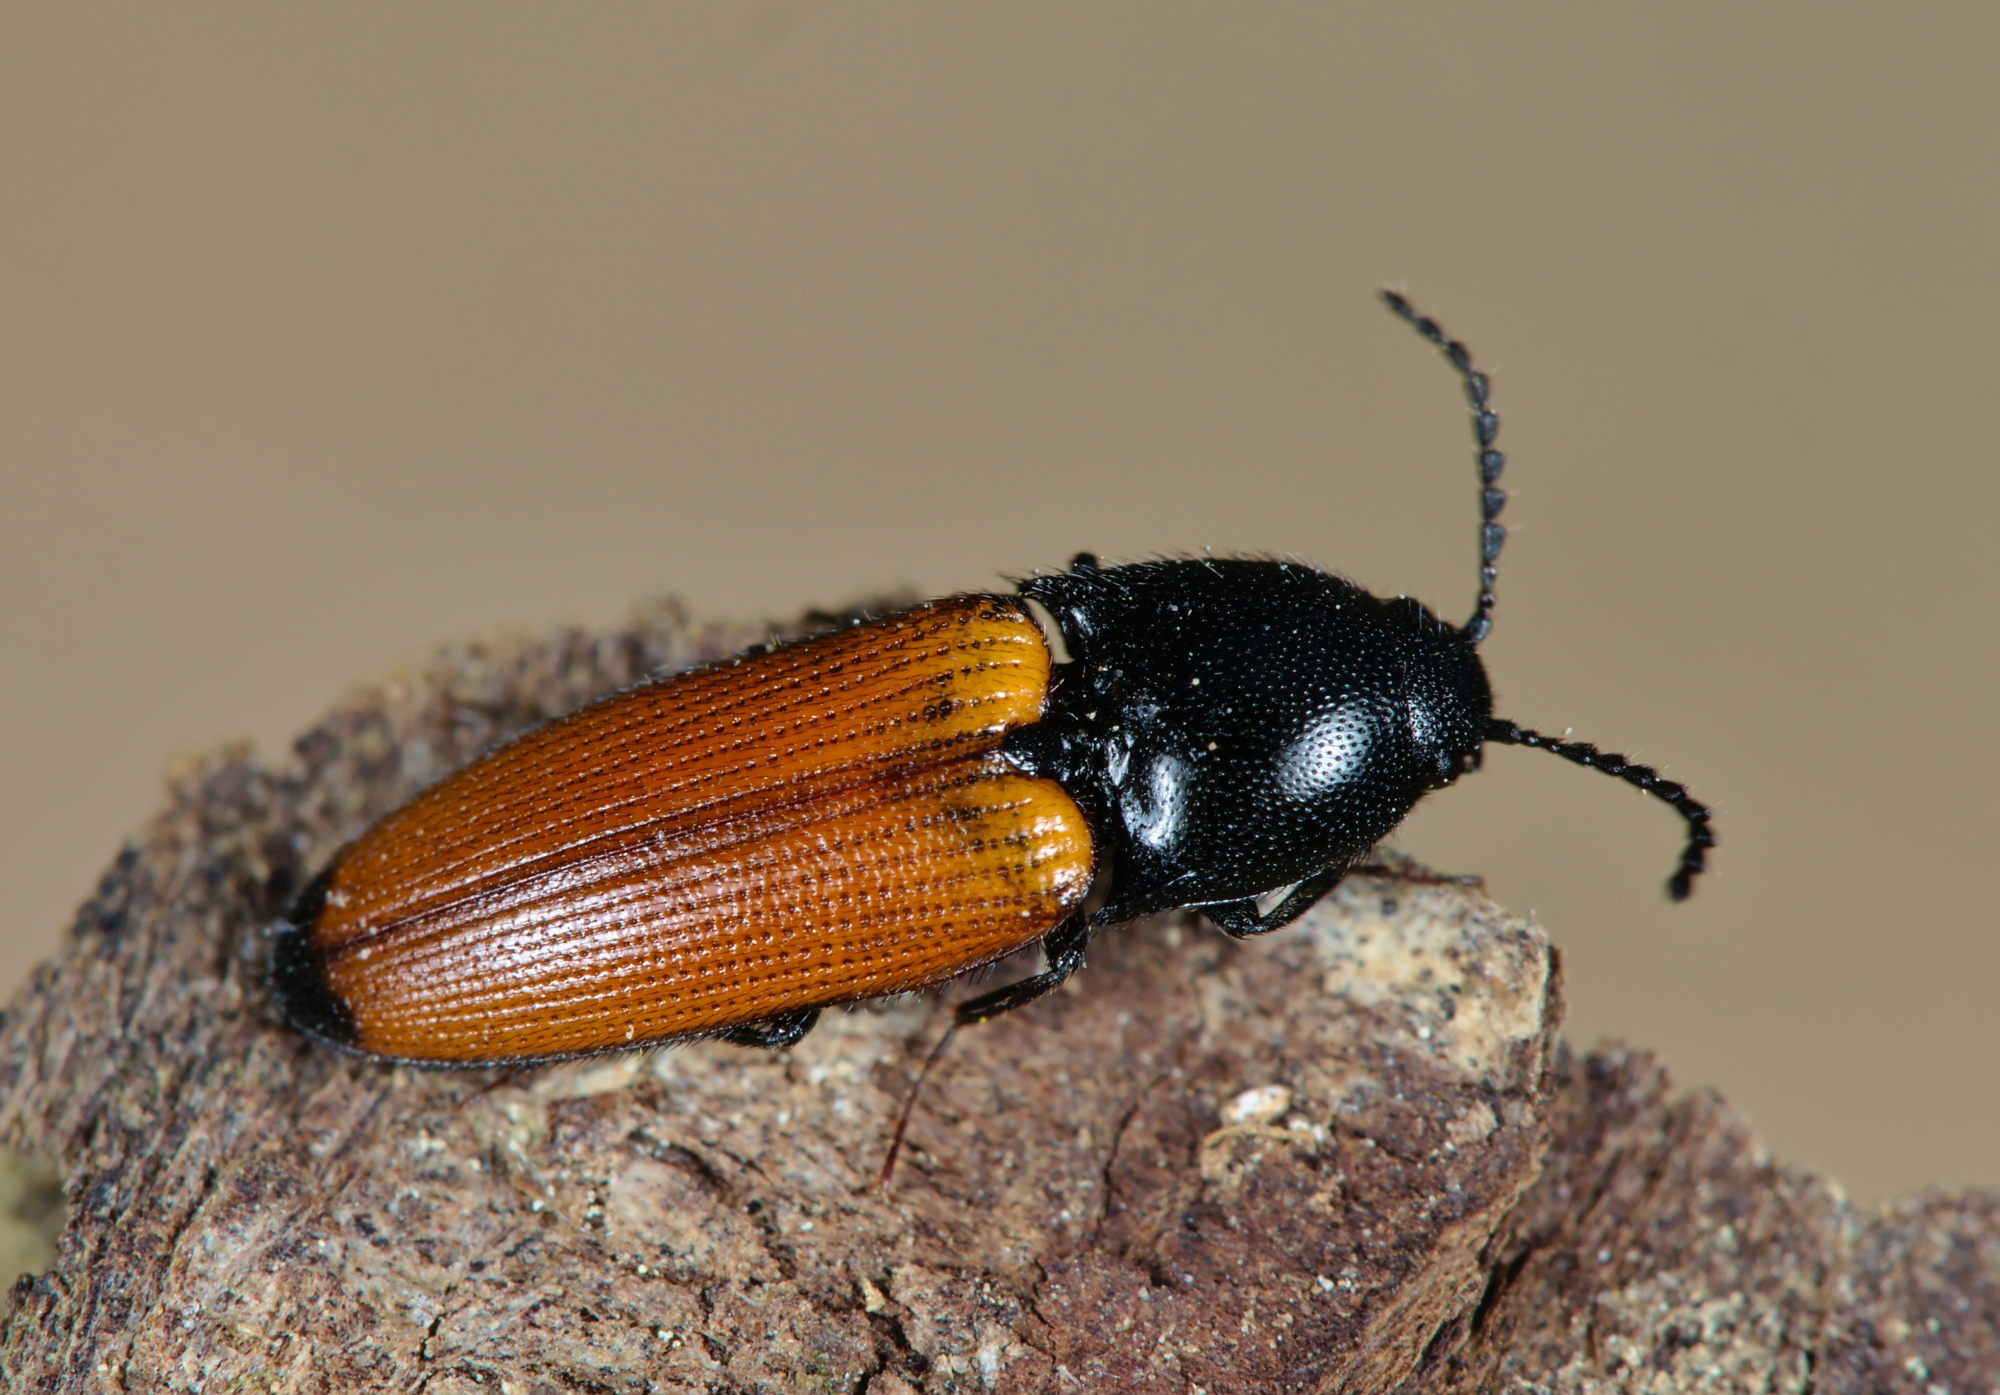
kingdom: Animalia
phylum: Arthropoda
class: Insecta
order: Coleoptera
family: Elateridae
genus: Ampedus
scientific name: Ampedus elongatulus
